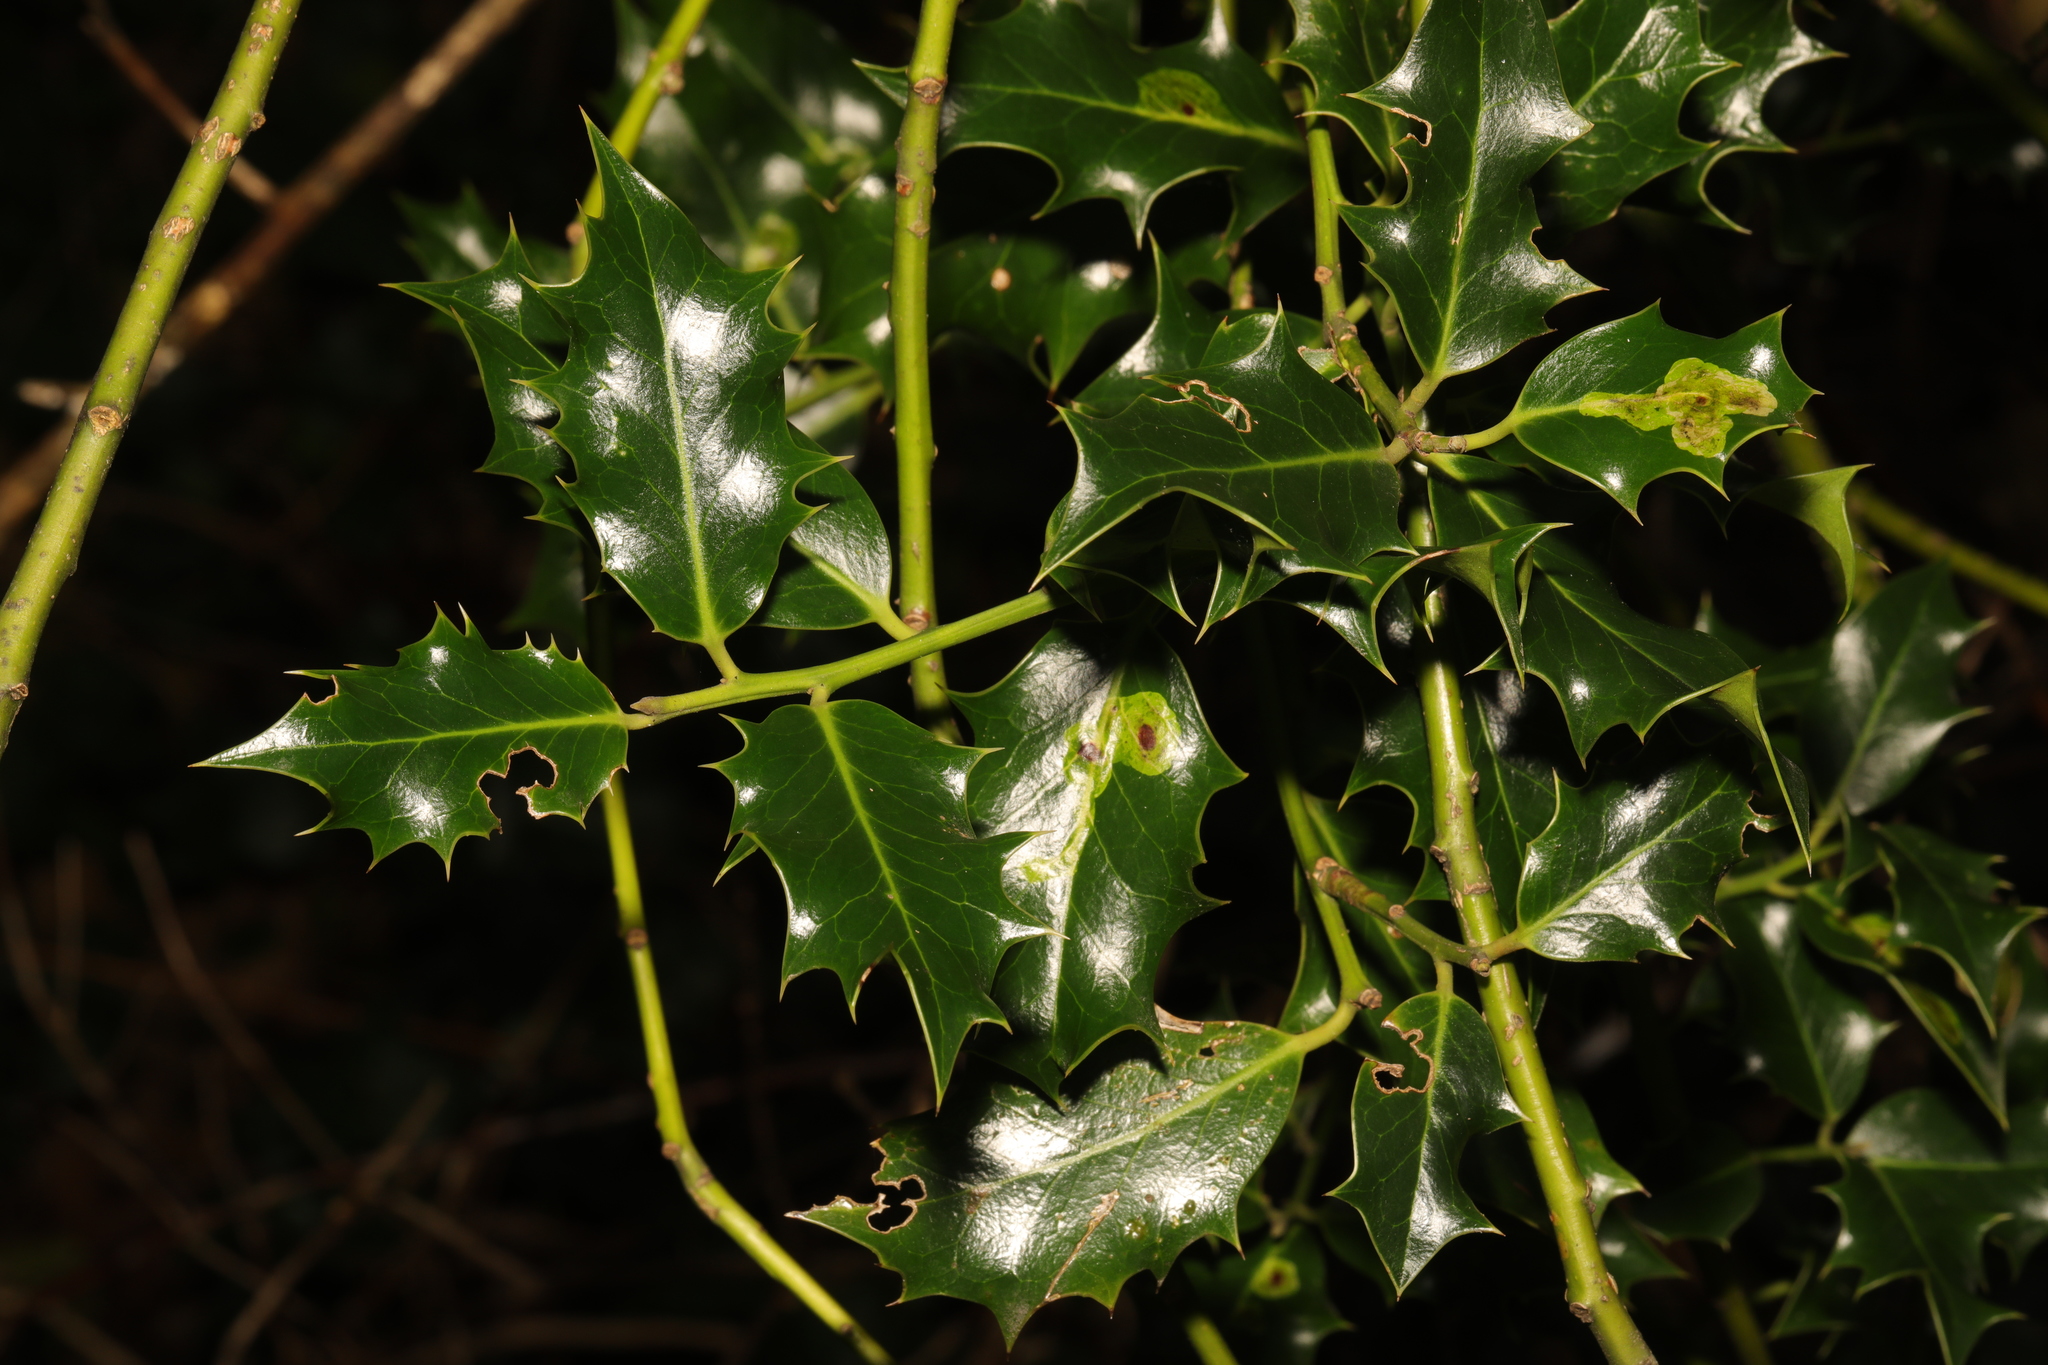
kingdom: Plantae
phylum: Tracheophyta
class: Magnoliopsida
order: Aquifoliales
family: Aquifoliaceae
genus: Ilex
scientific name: Ilex aquifolium
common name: English holly
